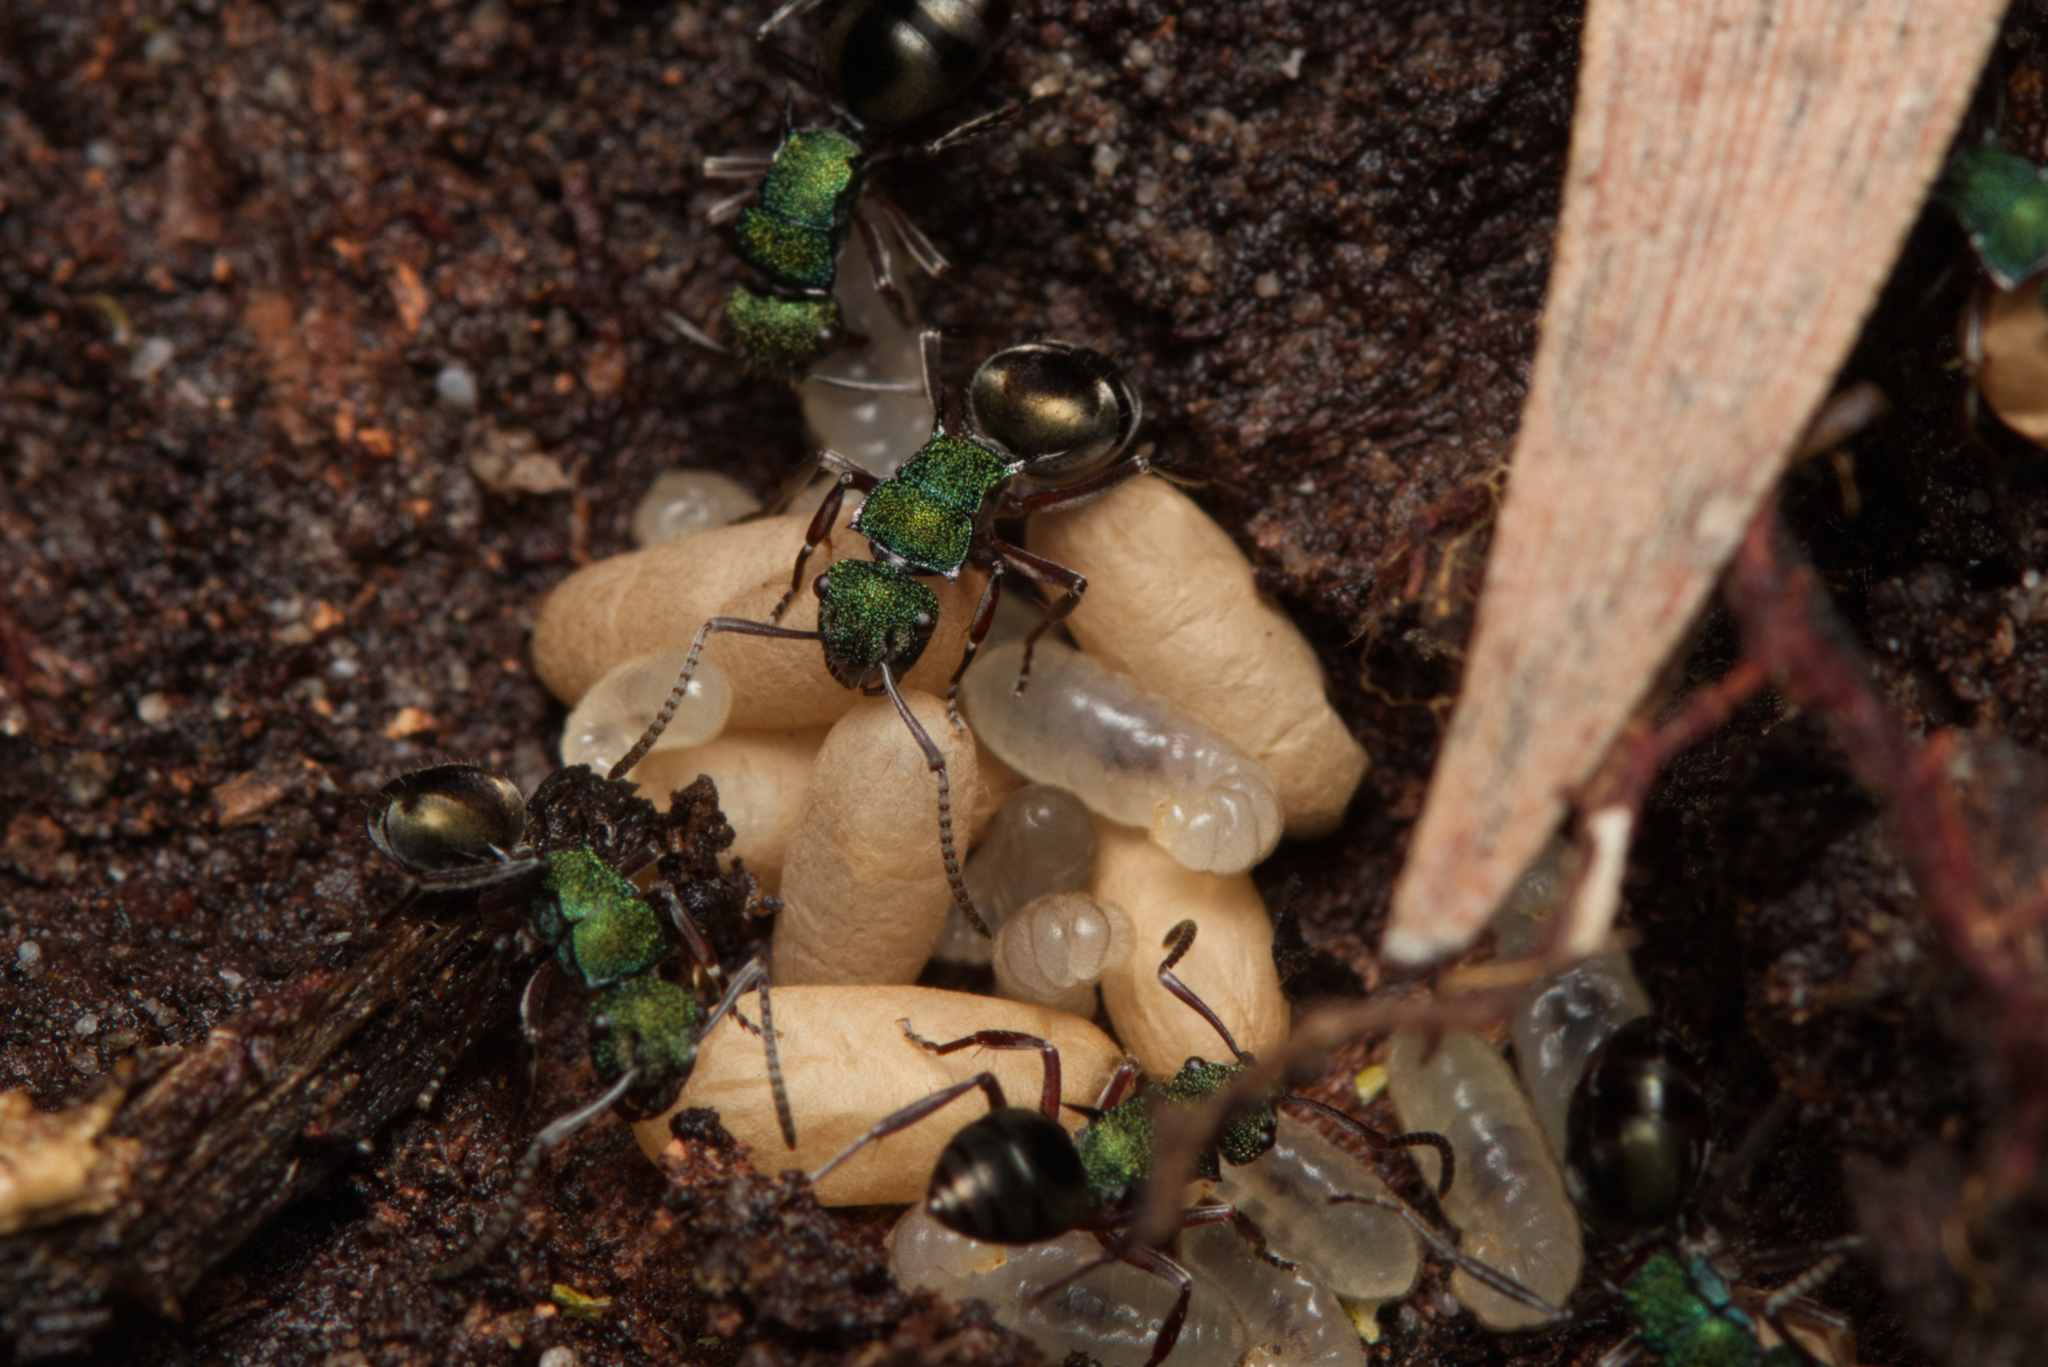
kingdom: Animalia
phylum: Arthropoda
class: Insecta
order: Hymenoptera
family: Formicidae
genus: Polyrhachis
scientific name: Polyrhachis hookeri
